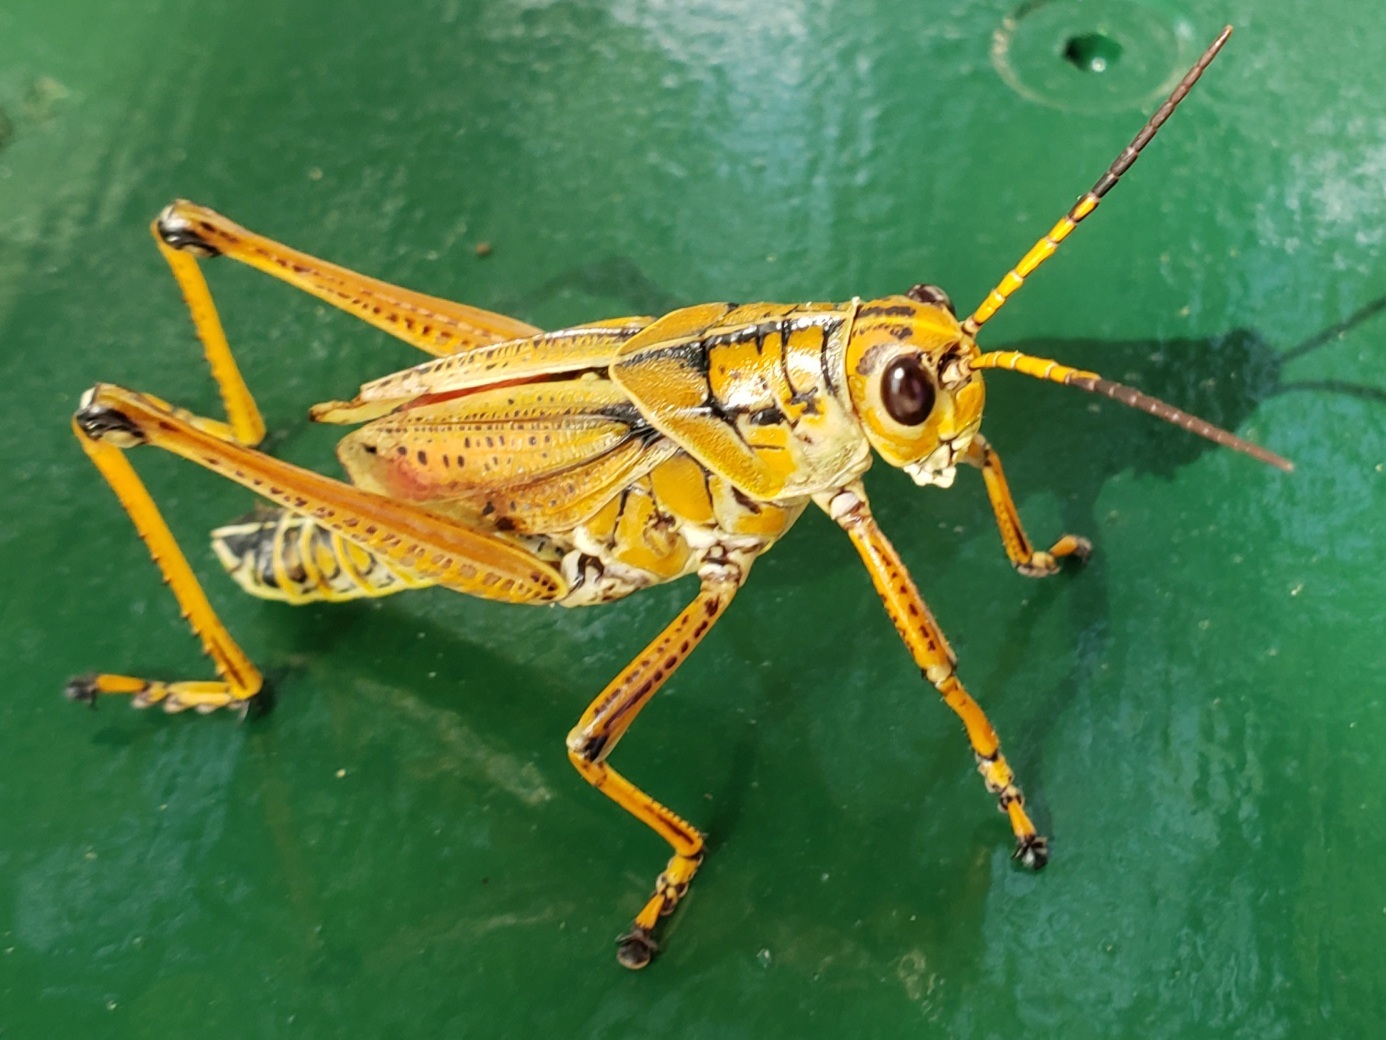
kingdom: Animalia
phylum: Arthropoda
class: Insecta
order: Orthoptera
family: Romaleidae
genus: Romalea
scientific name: Romalea microptera
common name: Eastern lubber grasshopper
